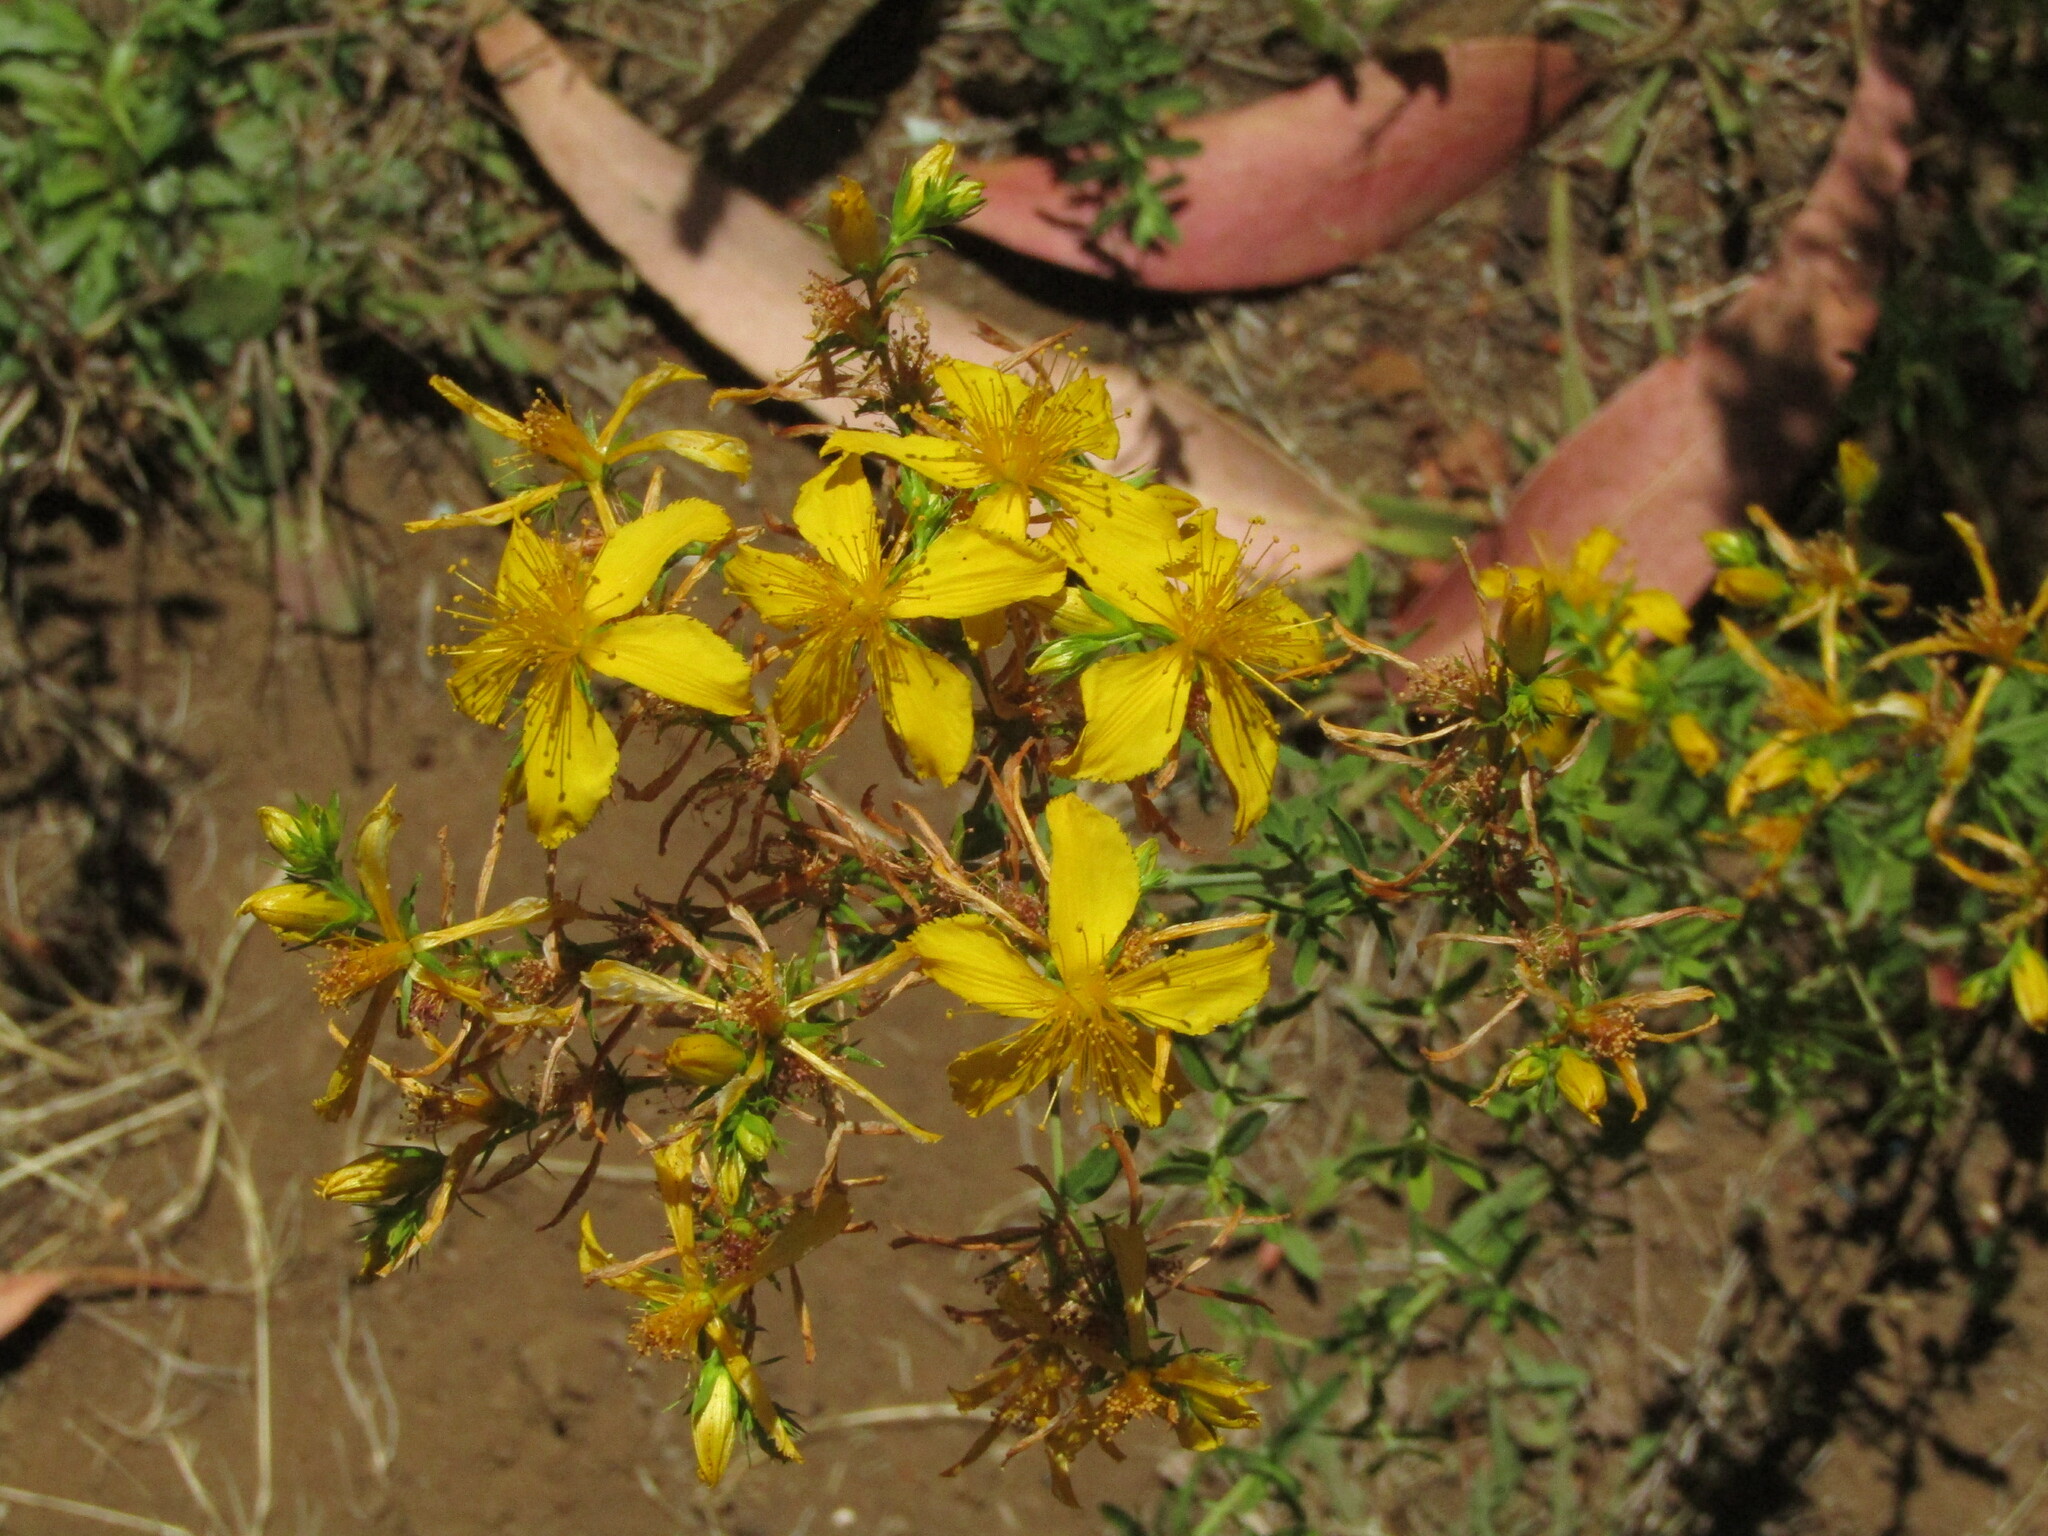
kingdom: Plantae
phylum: Tracheophyta
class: Magnoliopsida
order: Malpighiales
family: Hypericaceae
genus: Hypericum
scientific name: Hypericum perforatum
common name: Common st. johnswort
